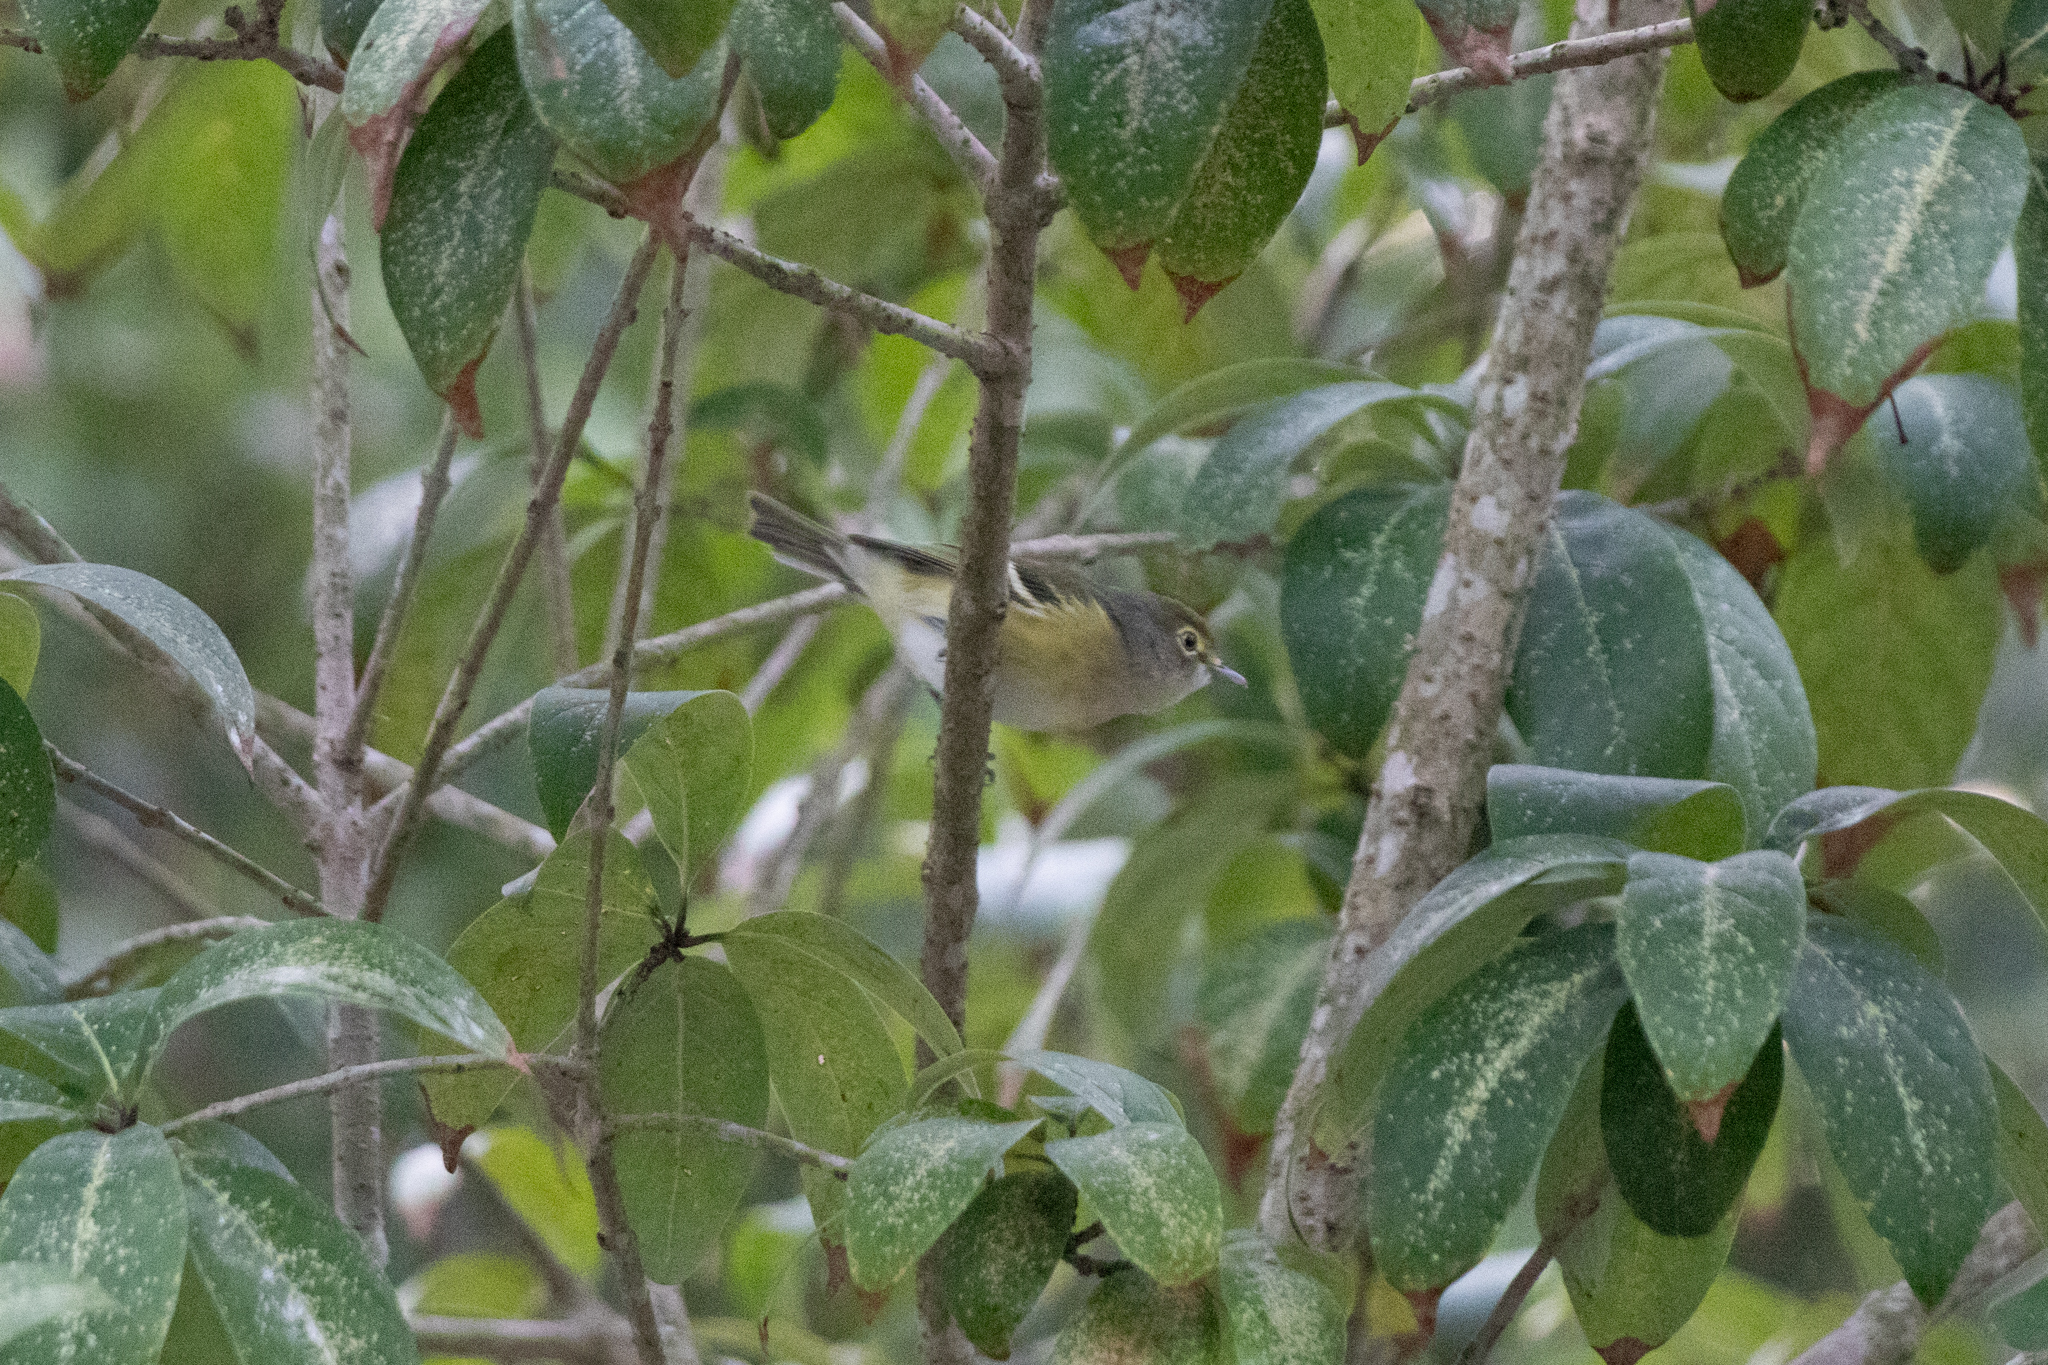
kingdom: Animalia
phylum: Chordata
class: Aves
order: Passeriformes
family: Vireonidae
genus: Vireo
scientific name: Vireo griseus
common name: White-eyed vireo
